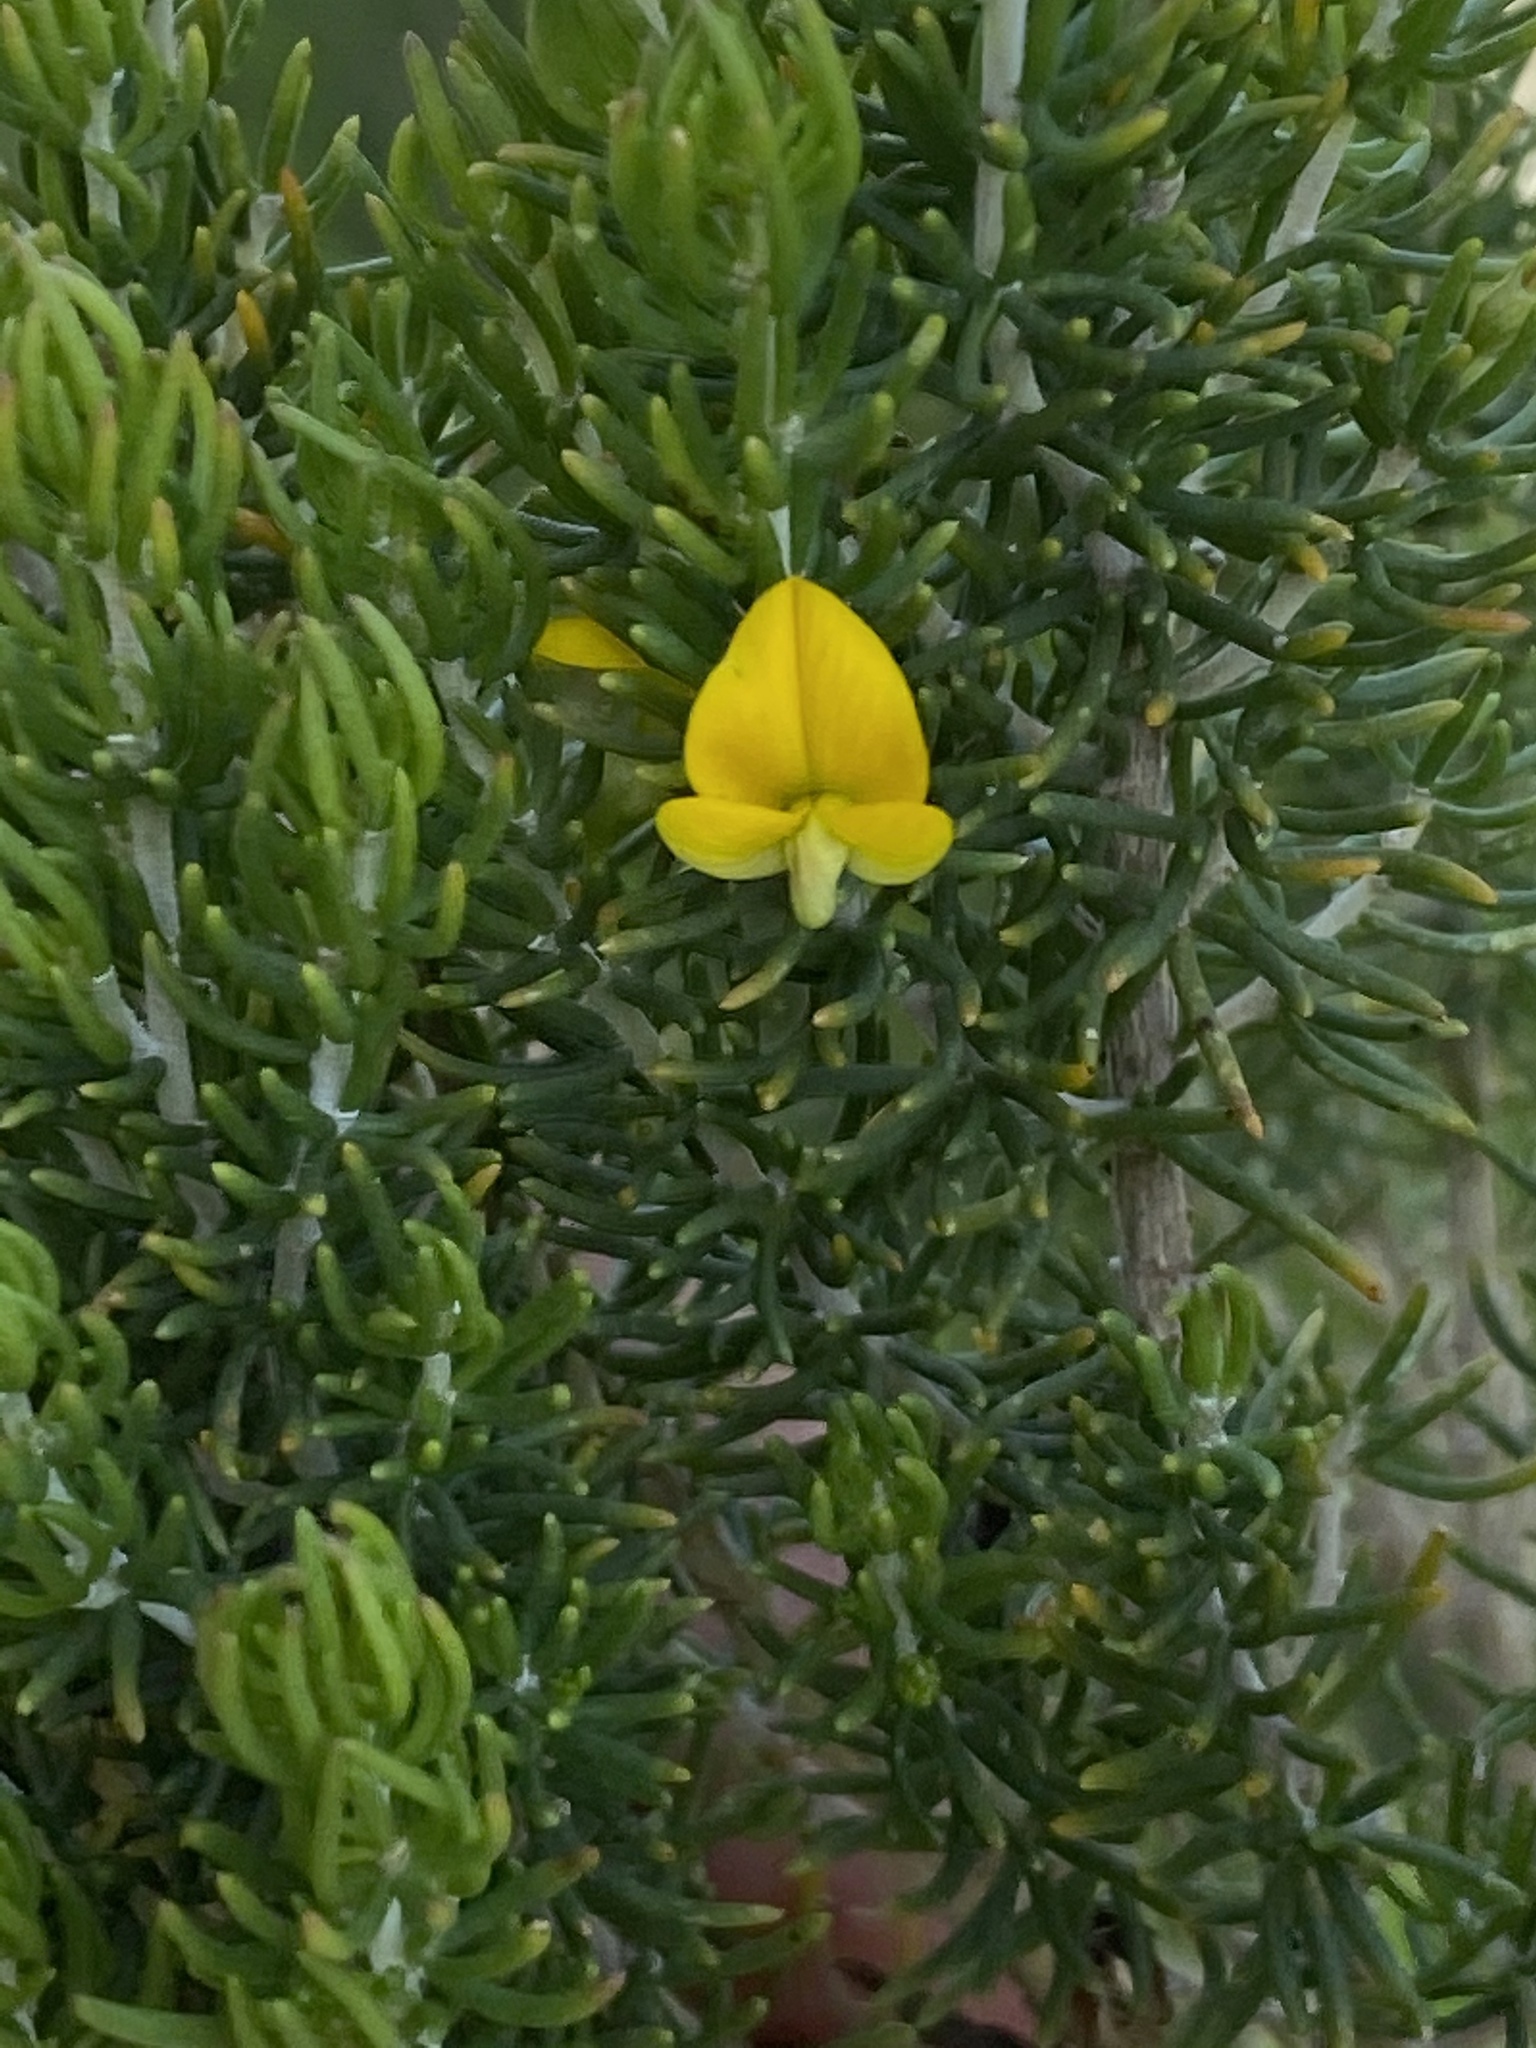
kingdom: Plantae
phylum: Tracheophyta
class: Magnoliopsida
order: Fabales
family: Fabaceae
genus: Aspalathus
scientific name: Aspalathus sanguinea
